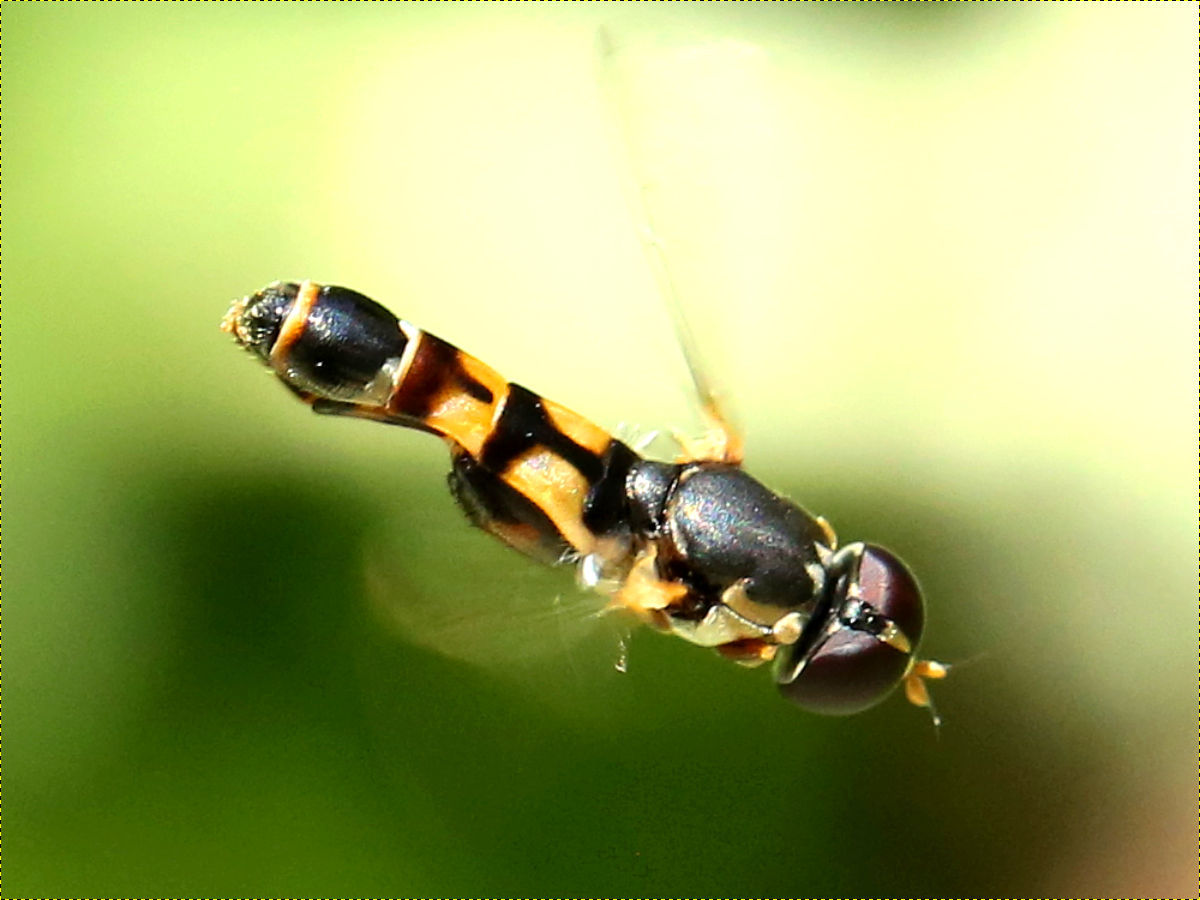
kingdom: Animalia
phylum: Arthropoda
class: Insecta
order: Diptera
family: Syrphidae
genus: Syritta
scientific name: Syritta pipiens
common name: Hover fly
